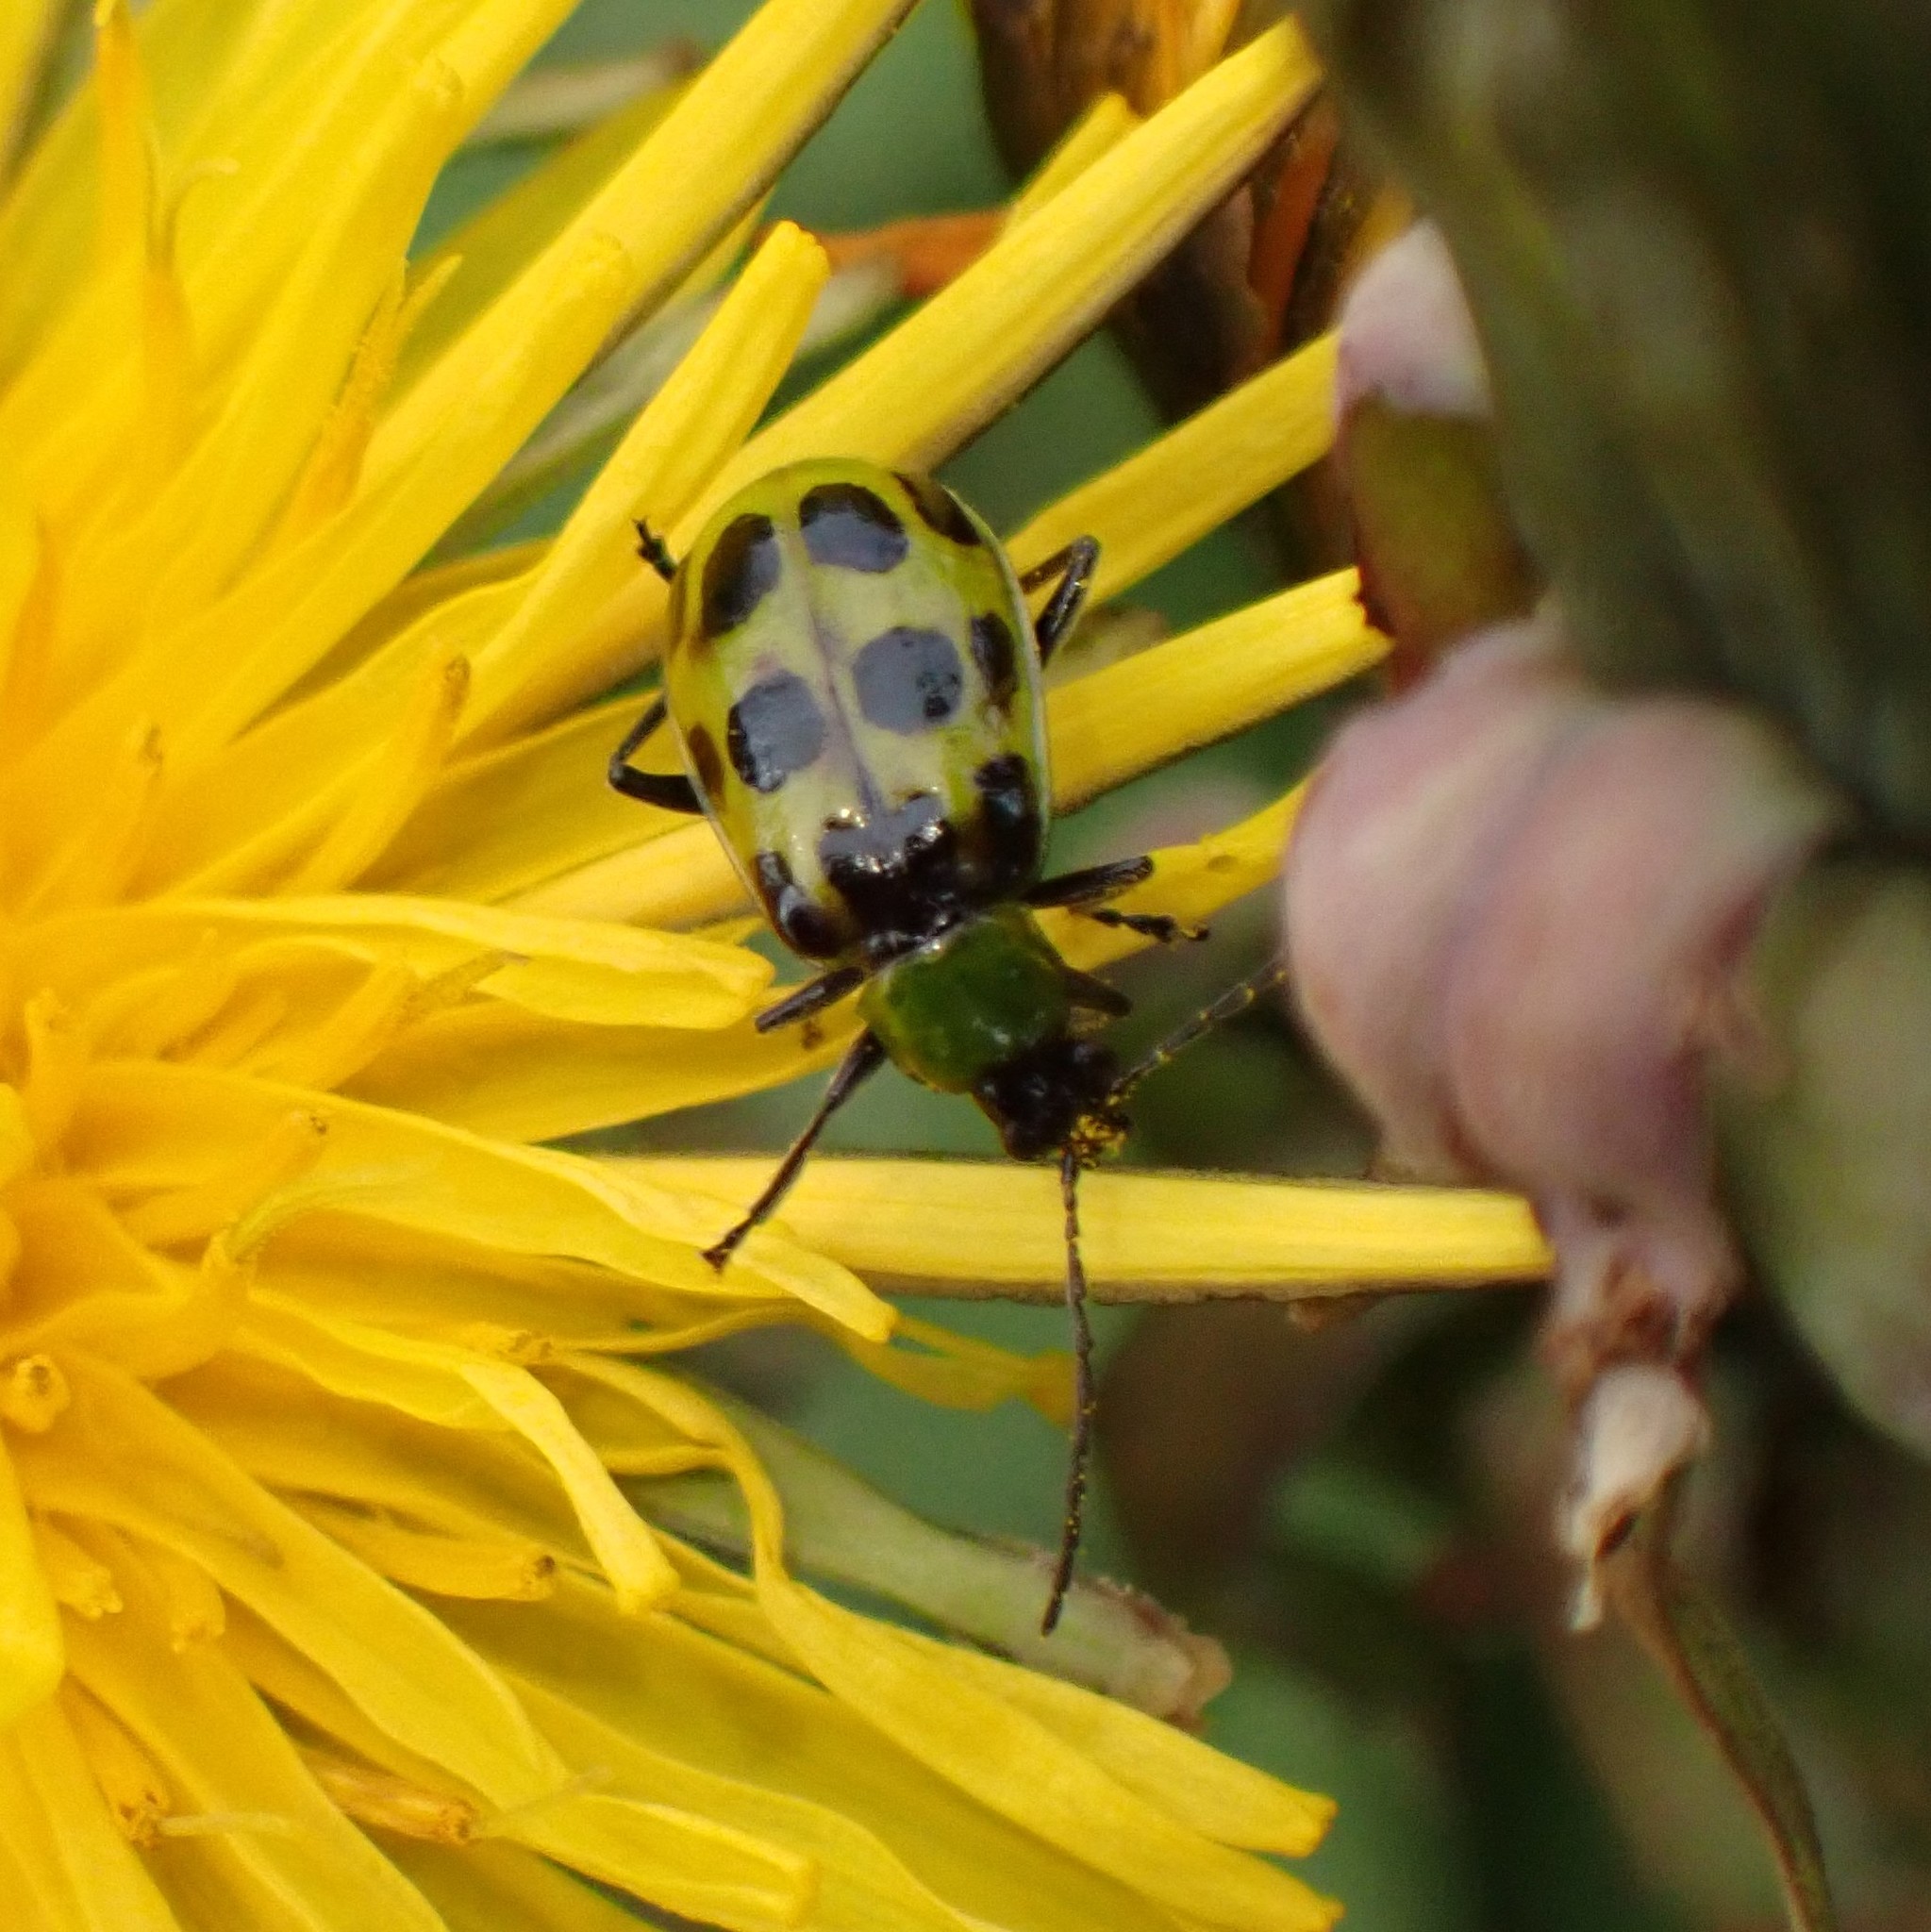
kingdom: Animalia
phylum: Arthropoda
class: Insecta
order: Coleoptera
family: Chrysomelidae
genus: Diabrotica
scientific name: Diabrotica undecimpunctata
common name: Spotted cucumber beetle
